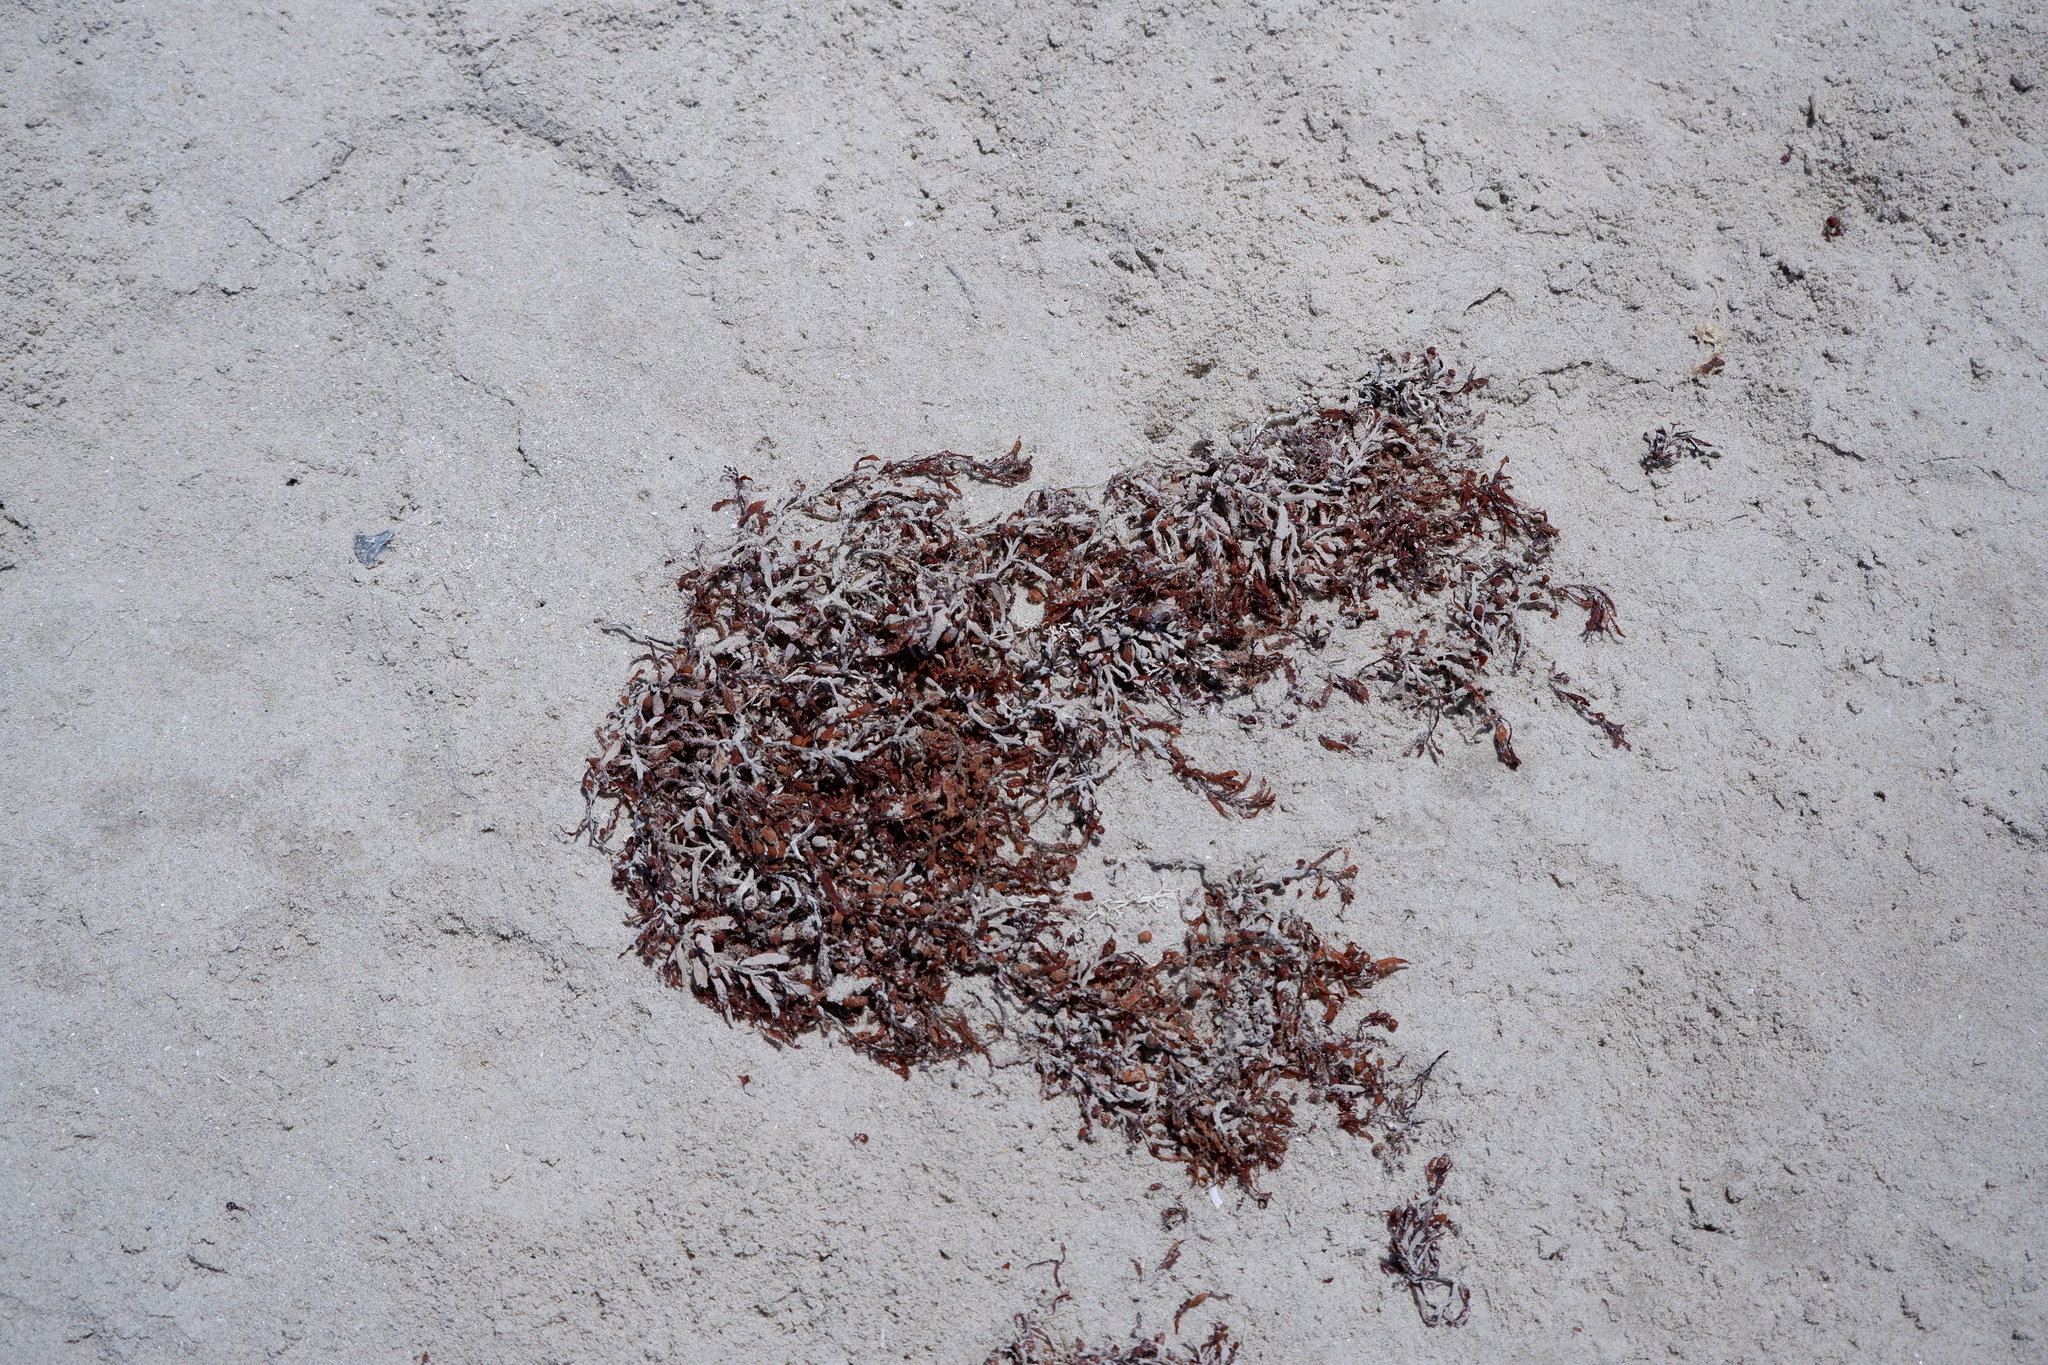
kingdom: Chromista
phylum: Ochrophyta
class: Phaeophyceae
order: Fucales
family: Sargassaceae
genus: Sargassum
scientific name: Sargassum fluitans
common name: Sargassum seaweed
